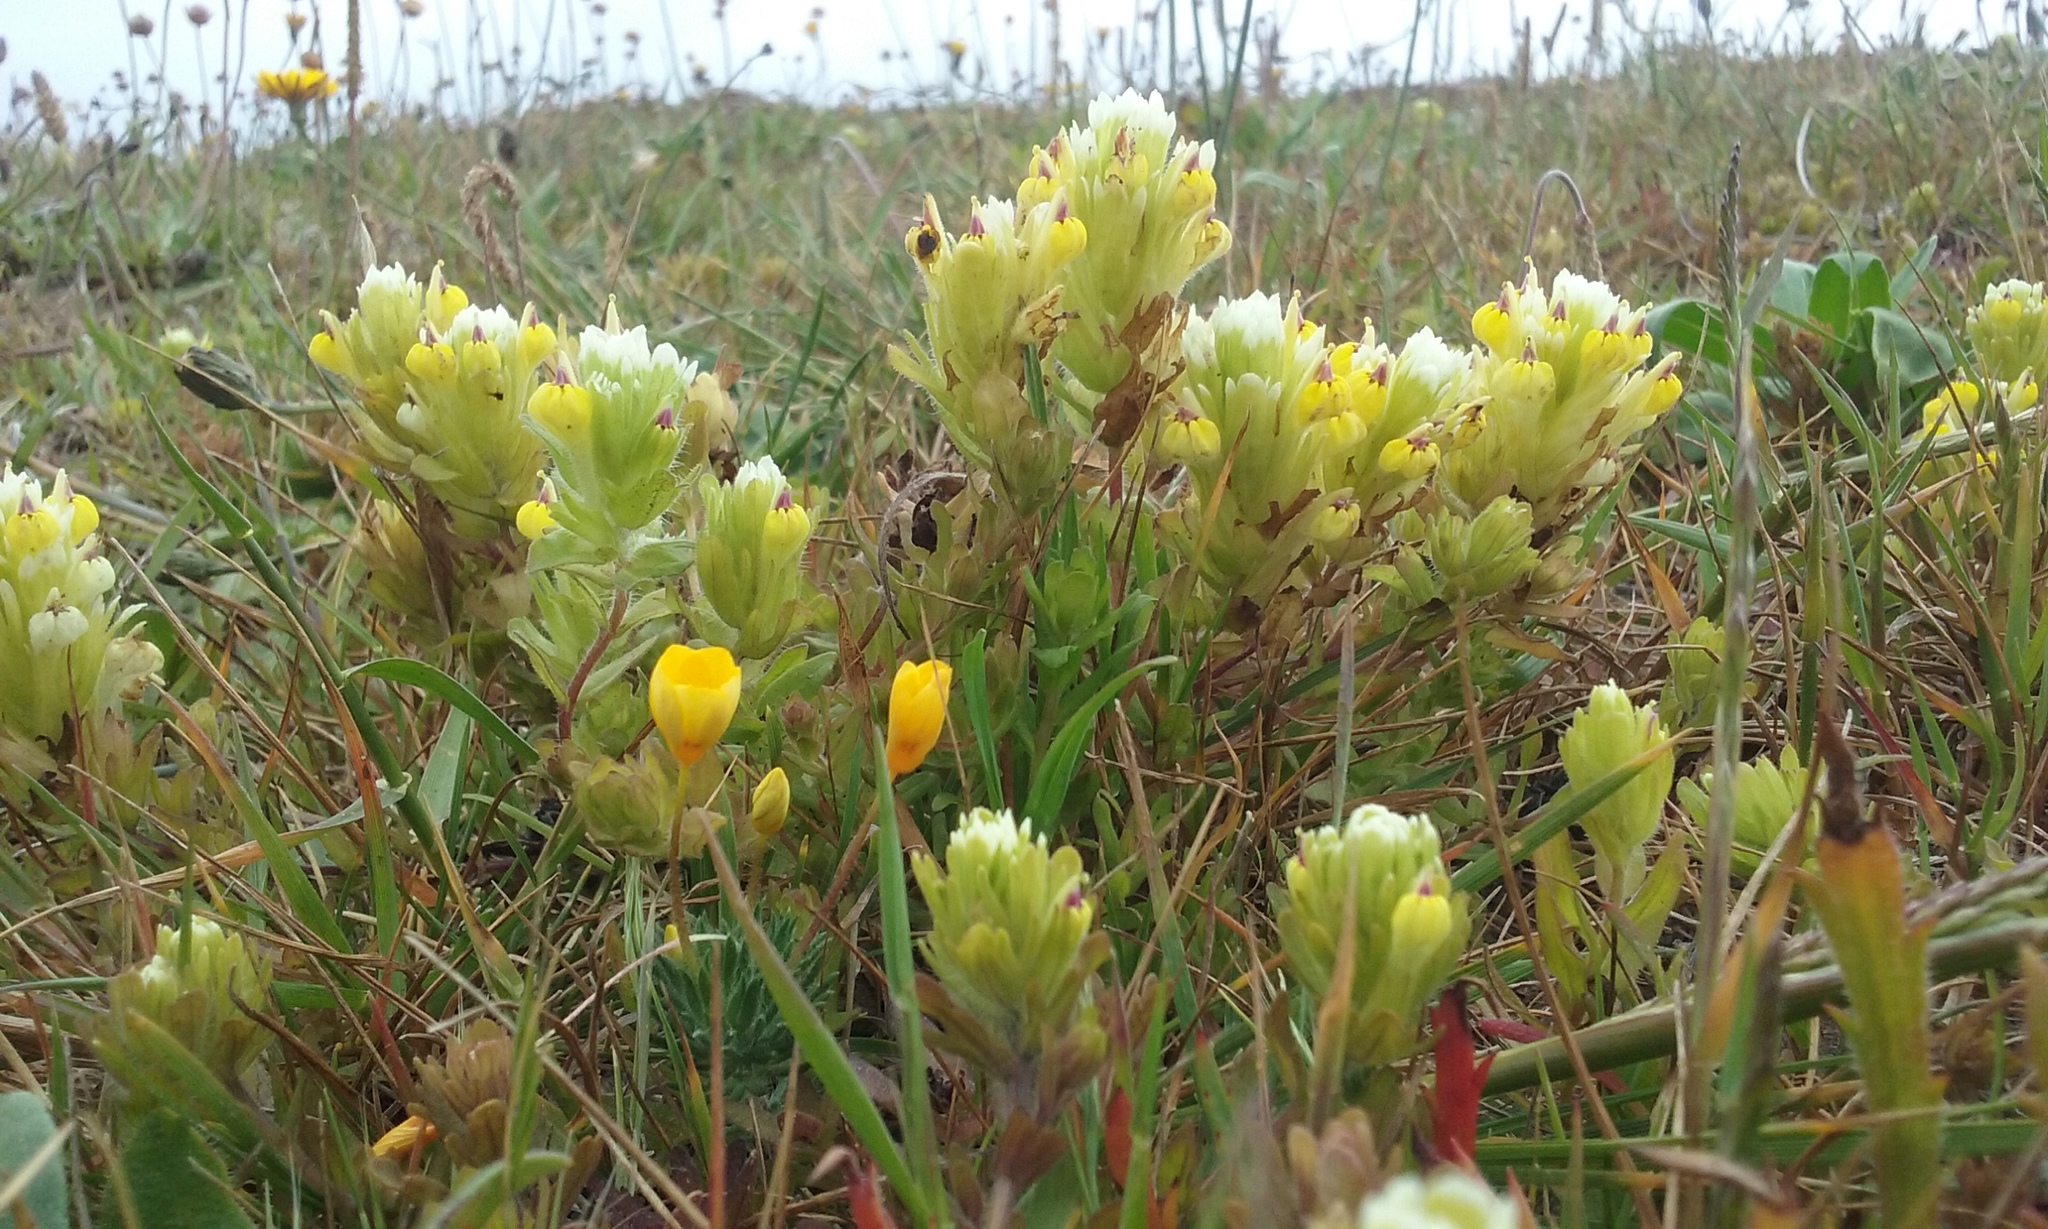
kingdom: Plantae
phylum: Tracheophyta
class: Magnoliopsida
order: Lamiales
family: Orobanchaceae
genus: Castilleja
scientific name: Castilleja ambigua
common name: Johnny-nip
